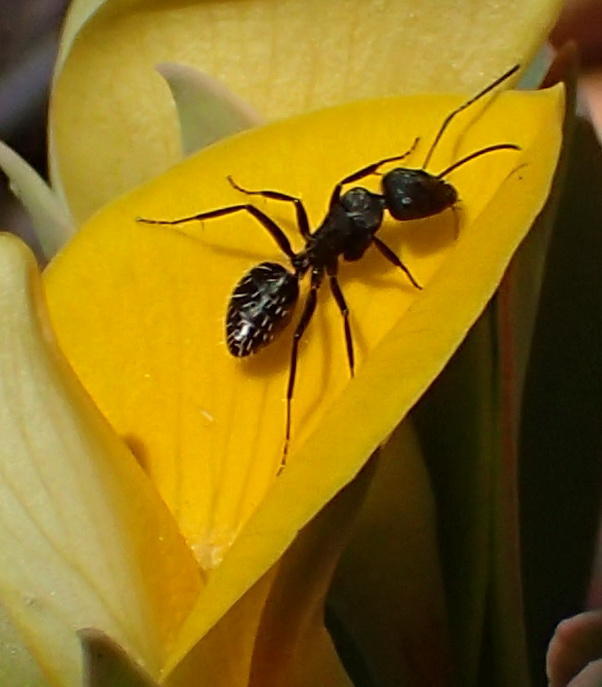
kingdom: Animalia
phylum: Arthropoda
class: Insecta
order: Hymenoptera
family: Formicidae
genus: Camponotus
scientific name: Camponotus niveosetosus
